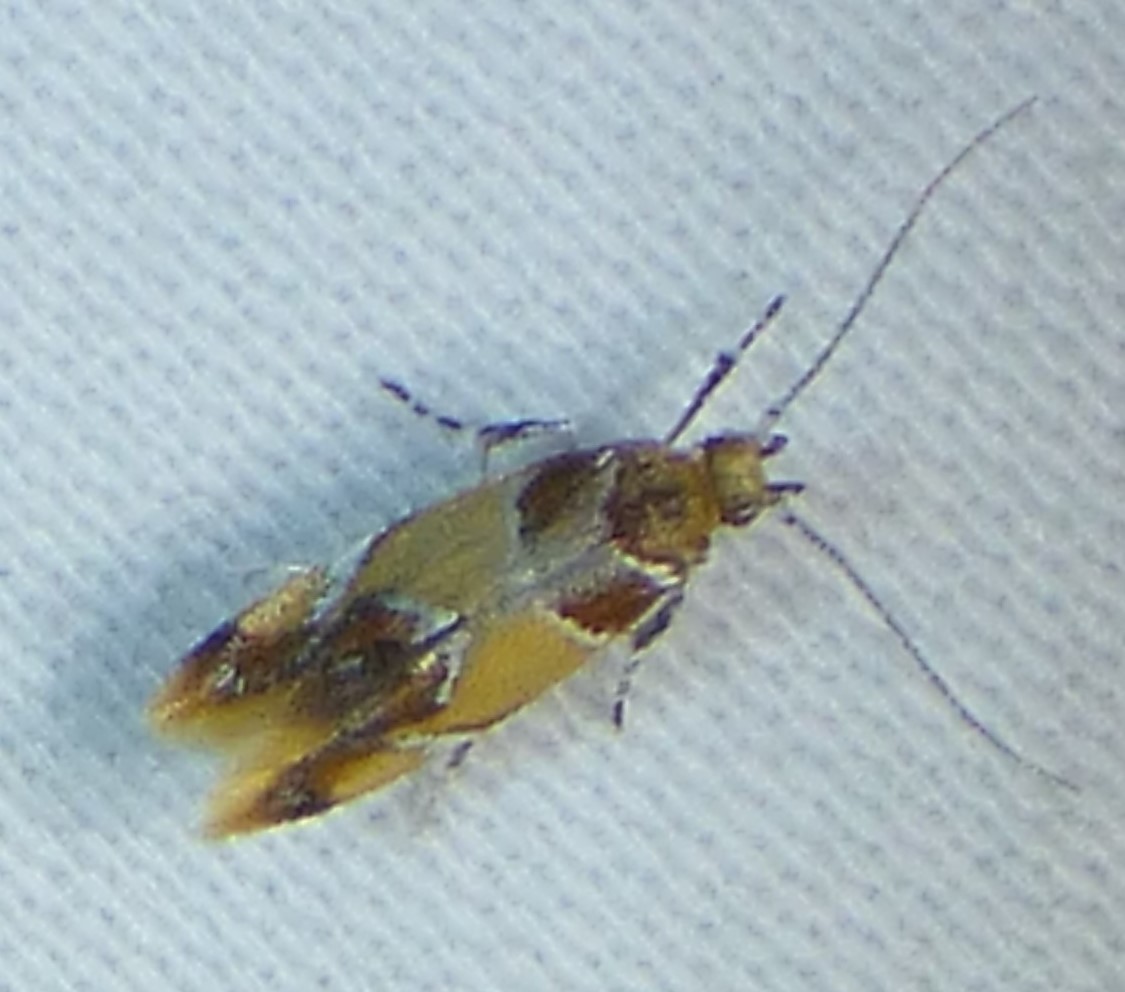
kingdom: Animalia
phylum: Arthropoda
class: Insecta
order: Lepidoptera
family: Oecophoridae
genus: Callima
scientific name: Callima argenticinctella
